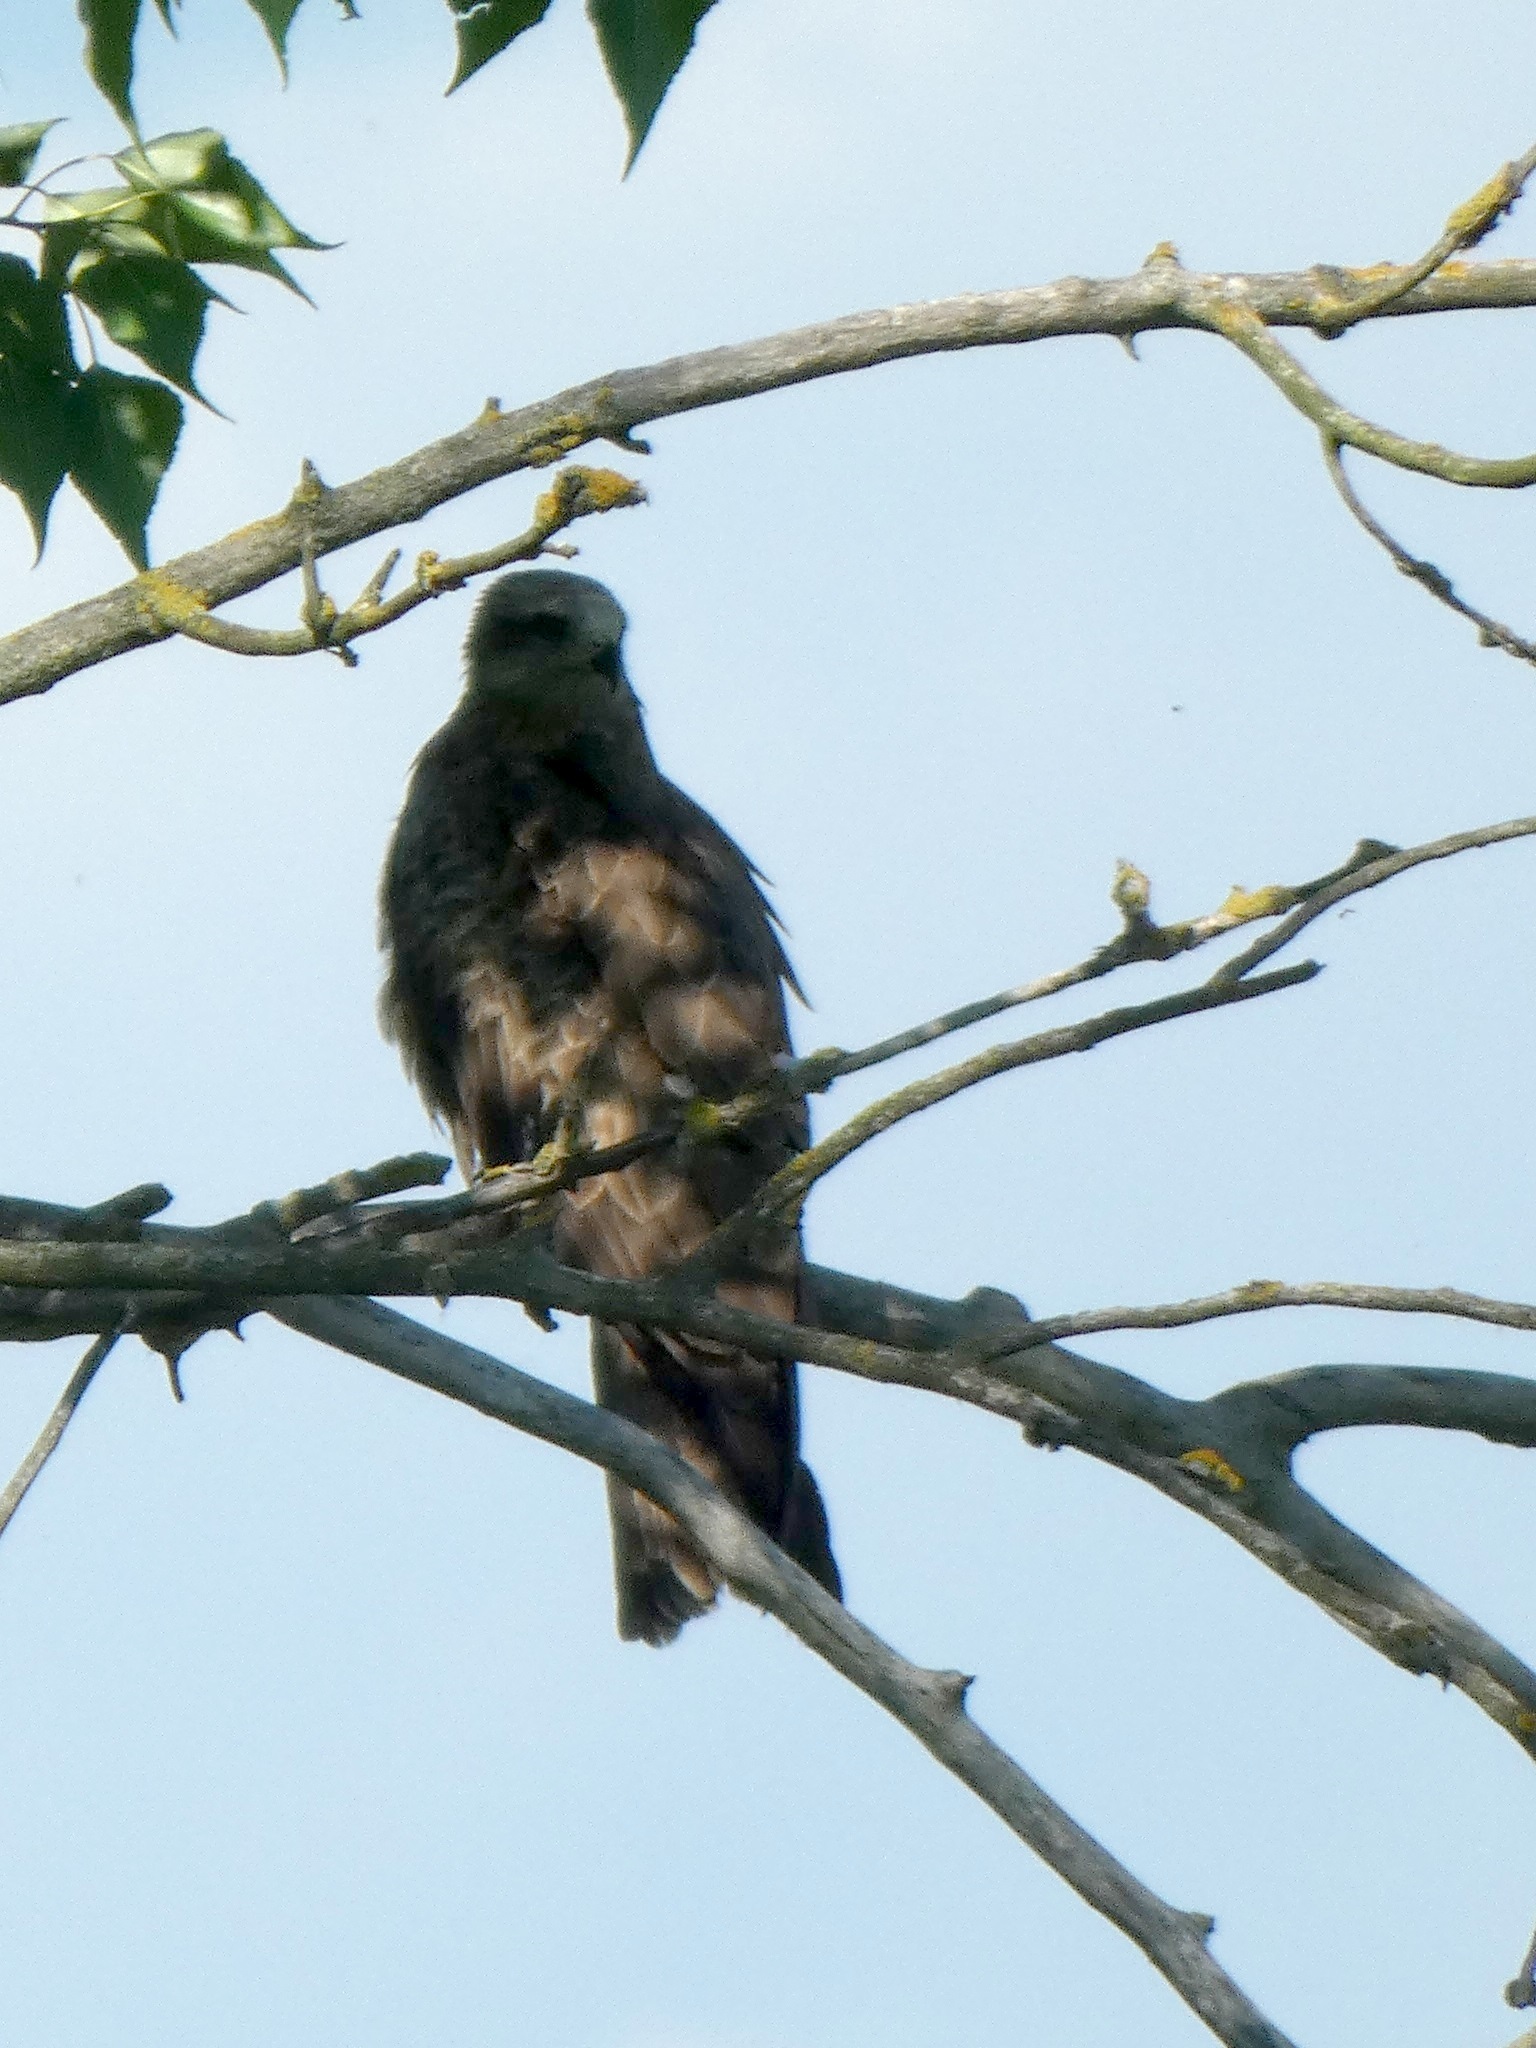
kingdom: Animalia
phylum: Chordata
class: Aves
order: Accipitriformes
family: Accipitridae
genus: Milvus
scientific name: Milvus migrans
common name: Black kite
